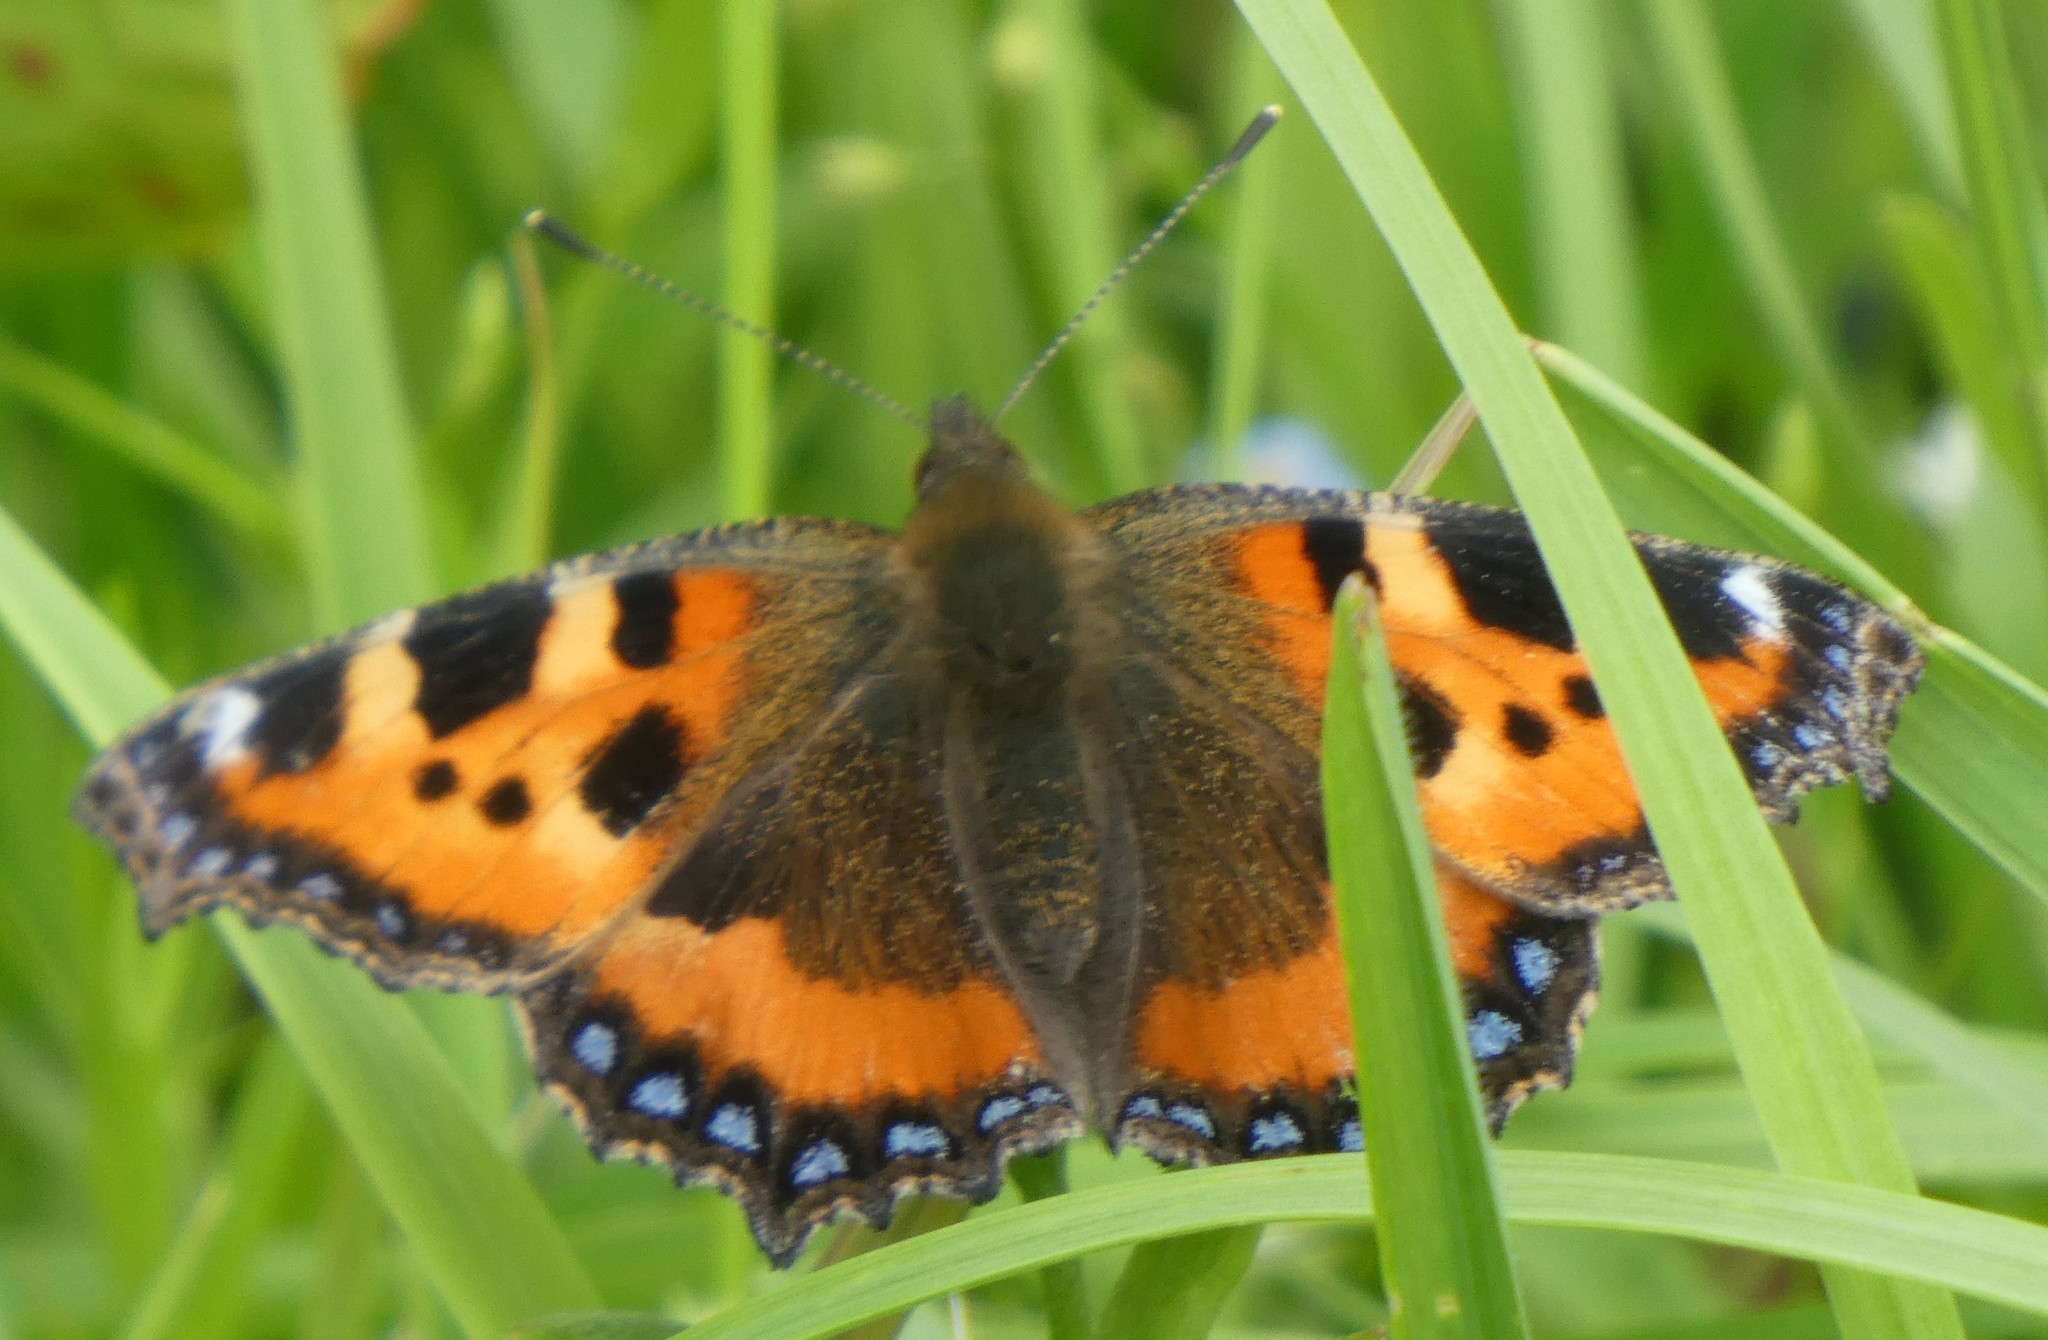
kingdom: Animalia
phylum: Arthropoda
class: Insecta
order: Lepidoptera
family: Nymphalidae
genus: Aglais
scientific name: Aglais urticae
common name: Small tortoiseshell
